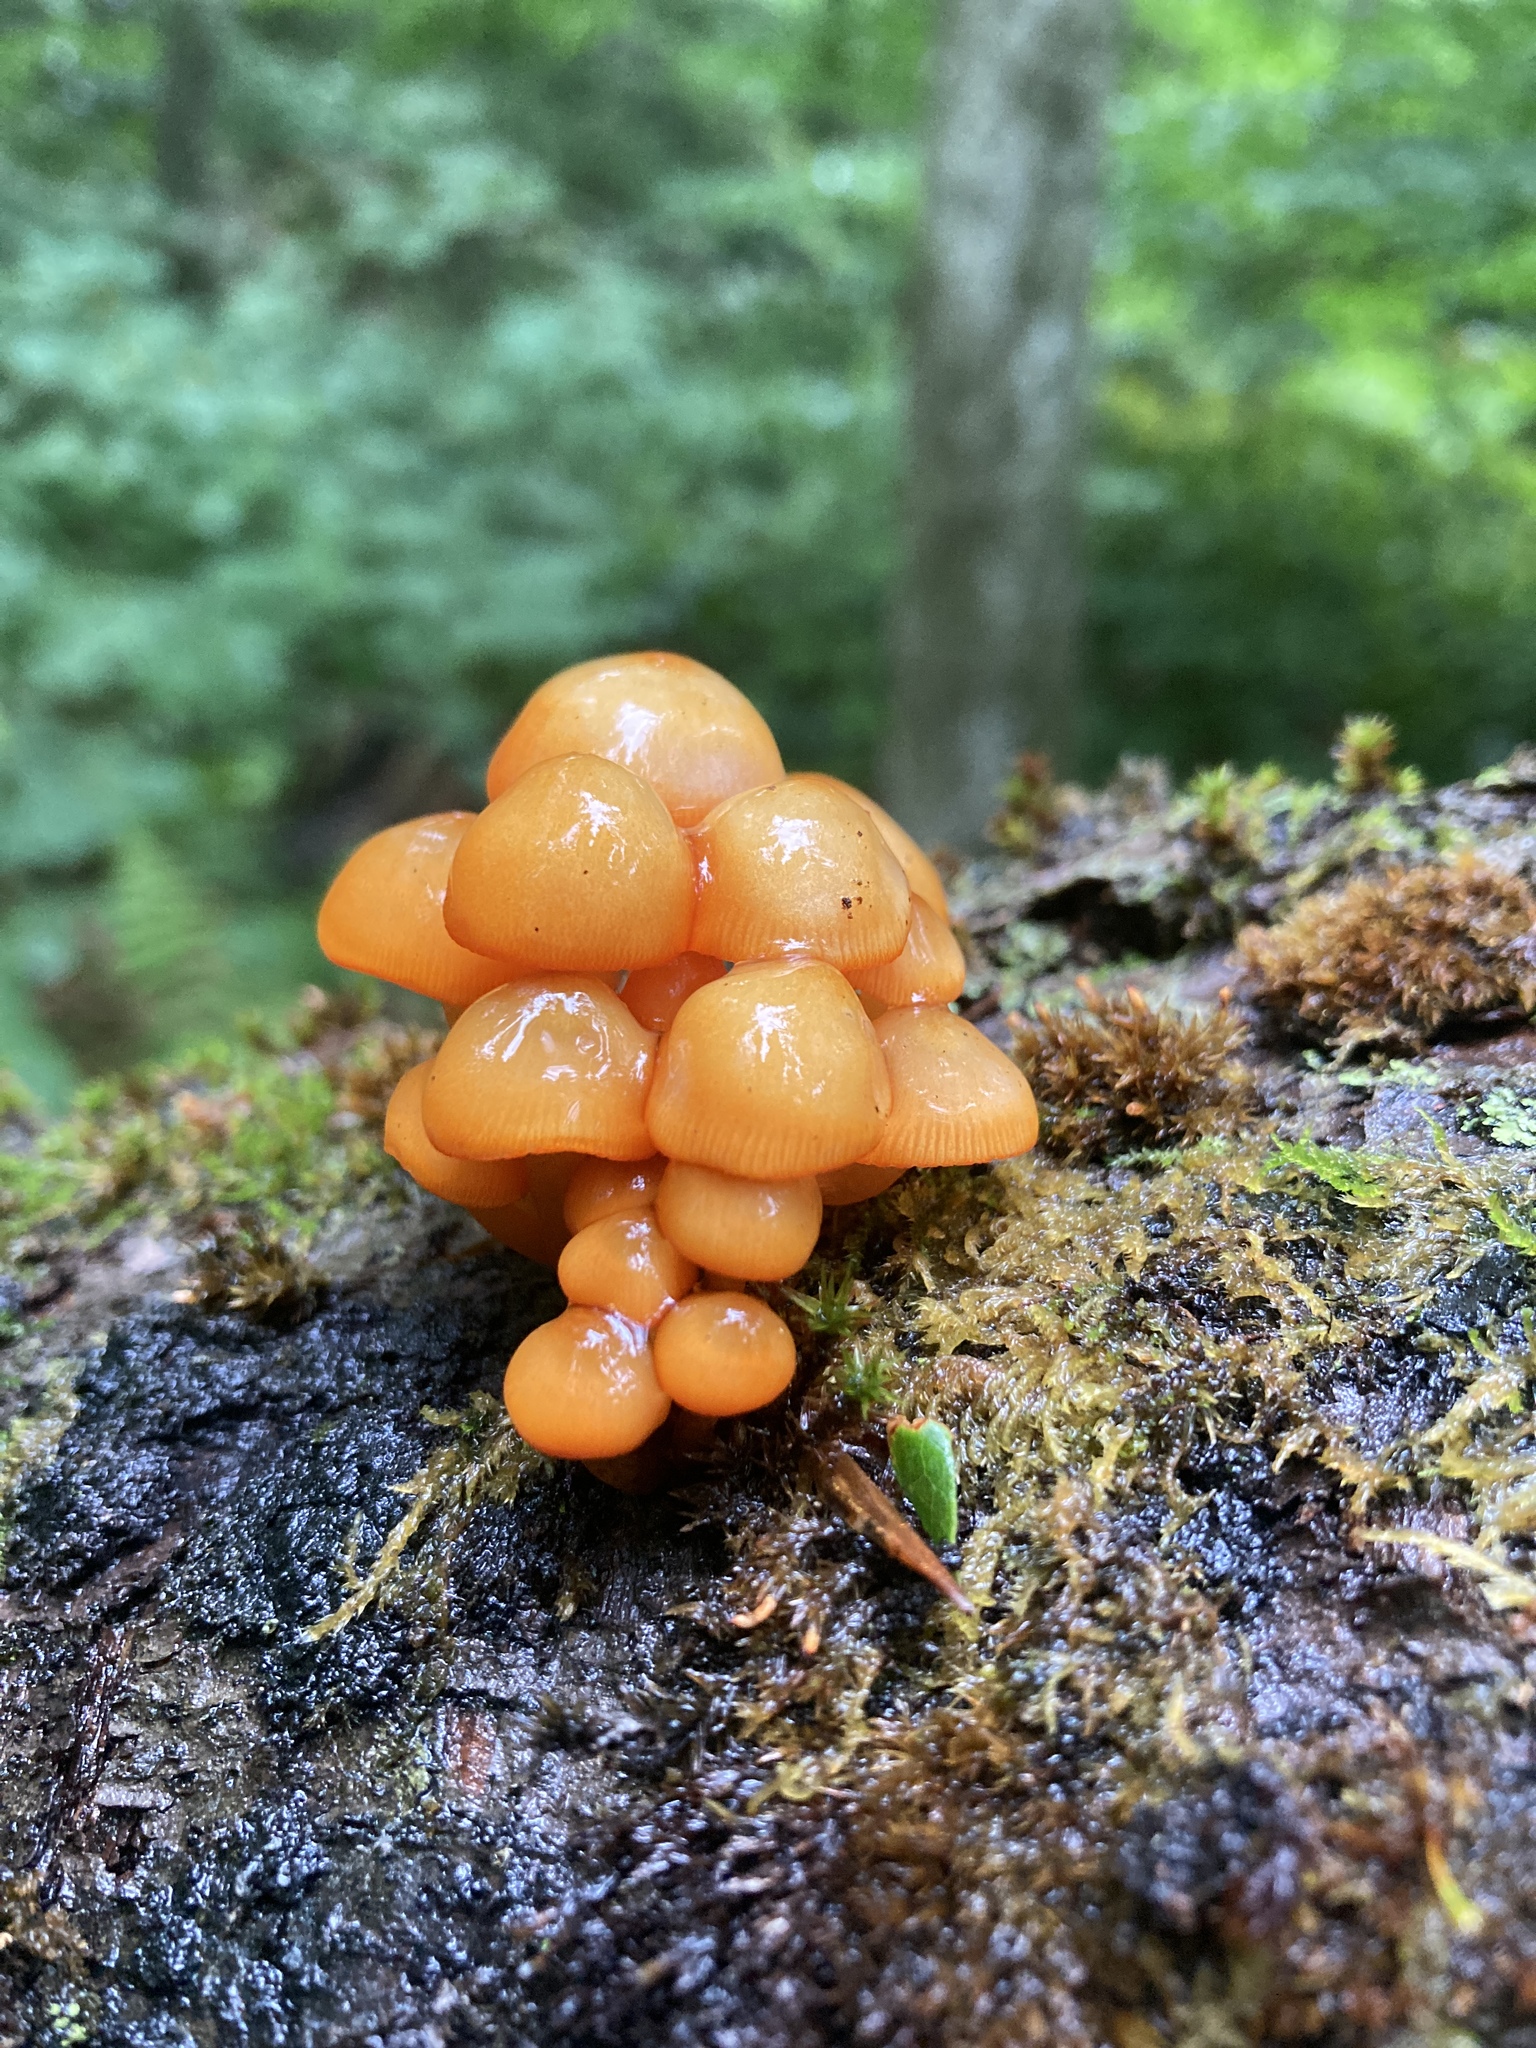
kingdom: Fungi
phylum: Basidiomycota
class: Agaricomycetes
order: Agaricales
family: Mycenaceae
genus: Mycena
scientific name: Mycena leaiana
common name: Orange mycena
